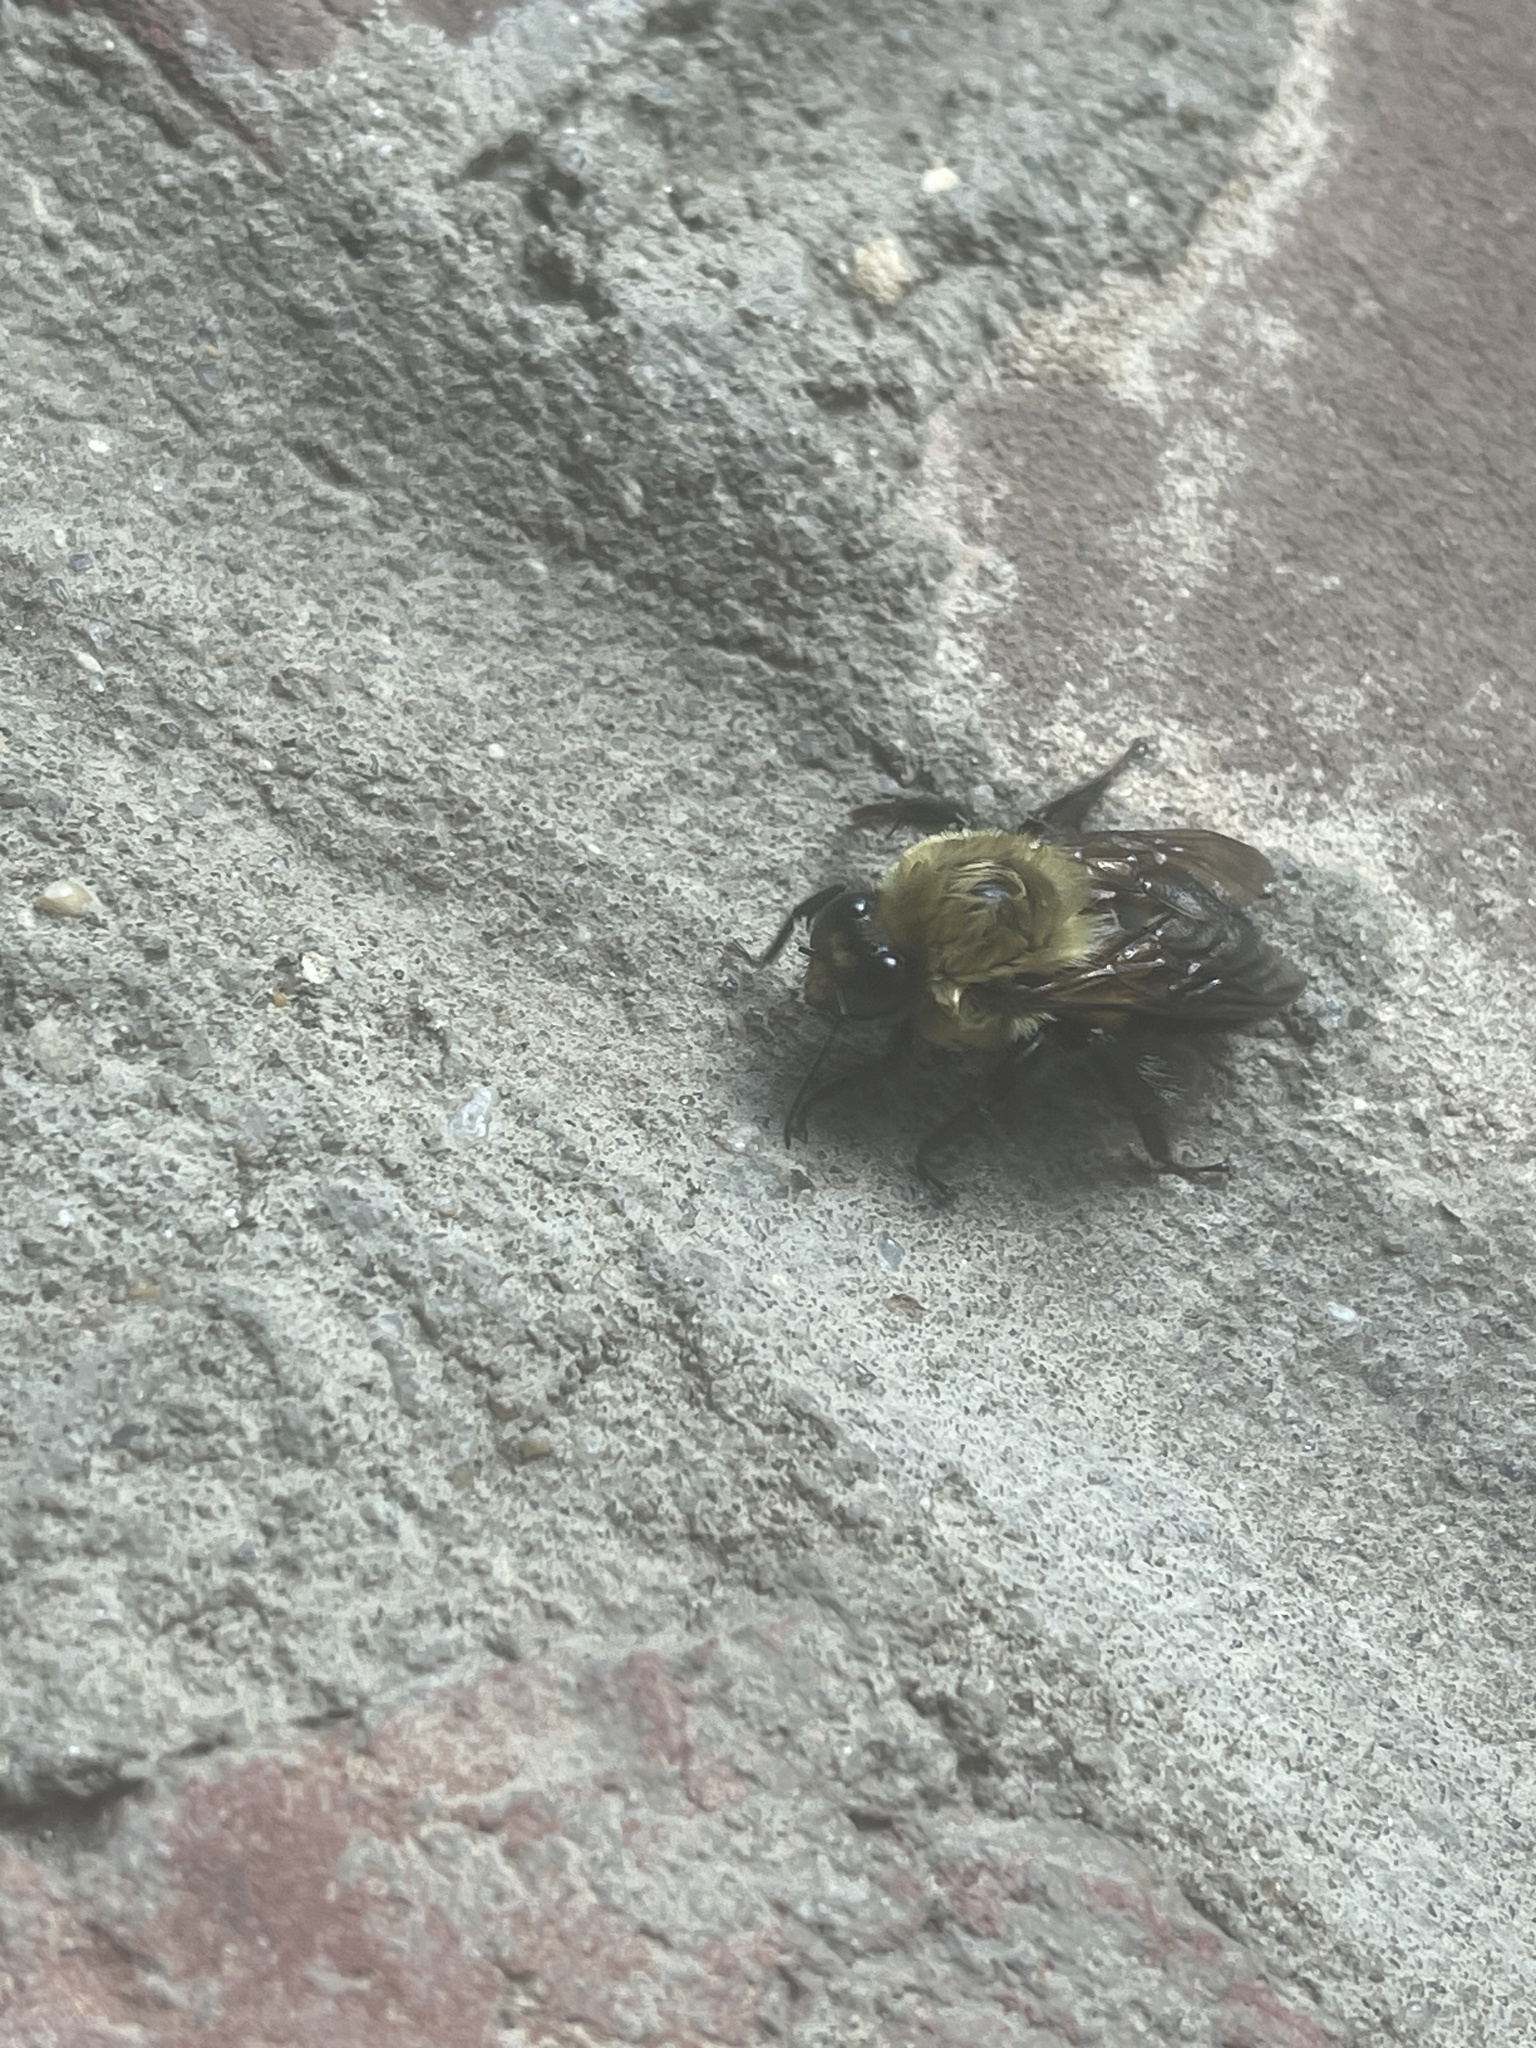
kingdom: Animalia
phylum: Arthropoda
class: Insecta
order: Hymenoptera
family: Apidae
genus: Bombus
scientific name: Bombus griseocollis
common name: Brown-belted bumble bee
